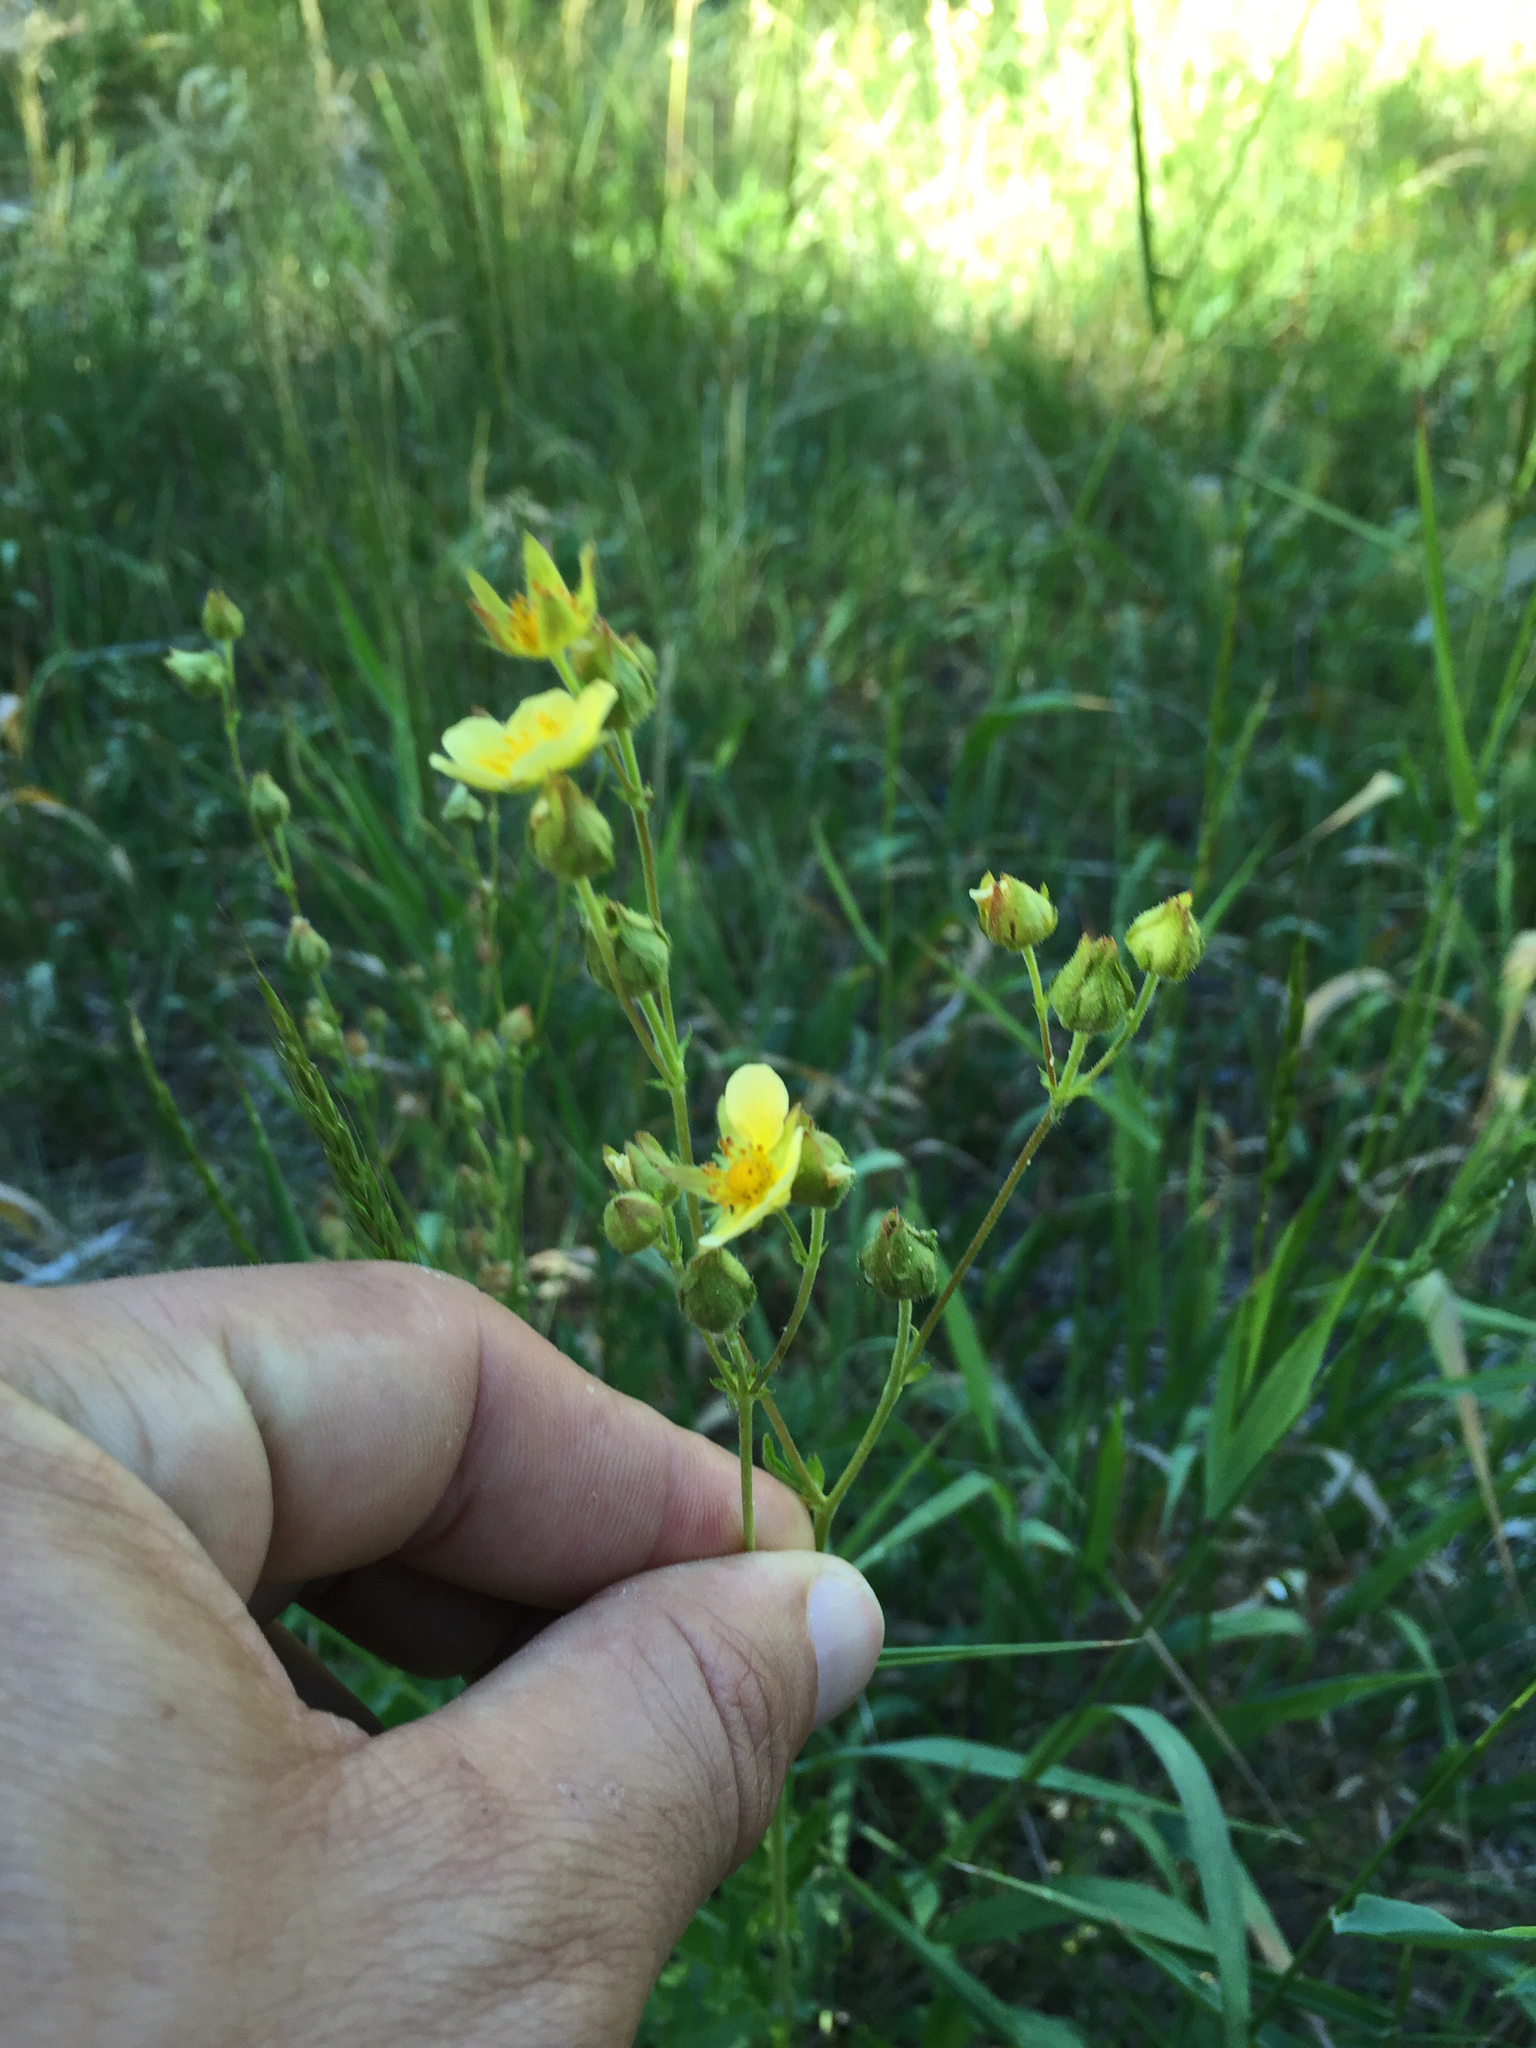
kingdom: Plantae
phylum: Tracheophyta
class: Magnoliopsida
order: Rosales
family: Rosaceae
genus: Drymocallis
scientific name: Drymocallis lactea
